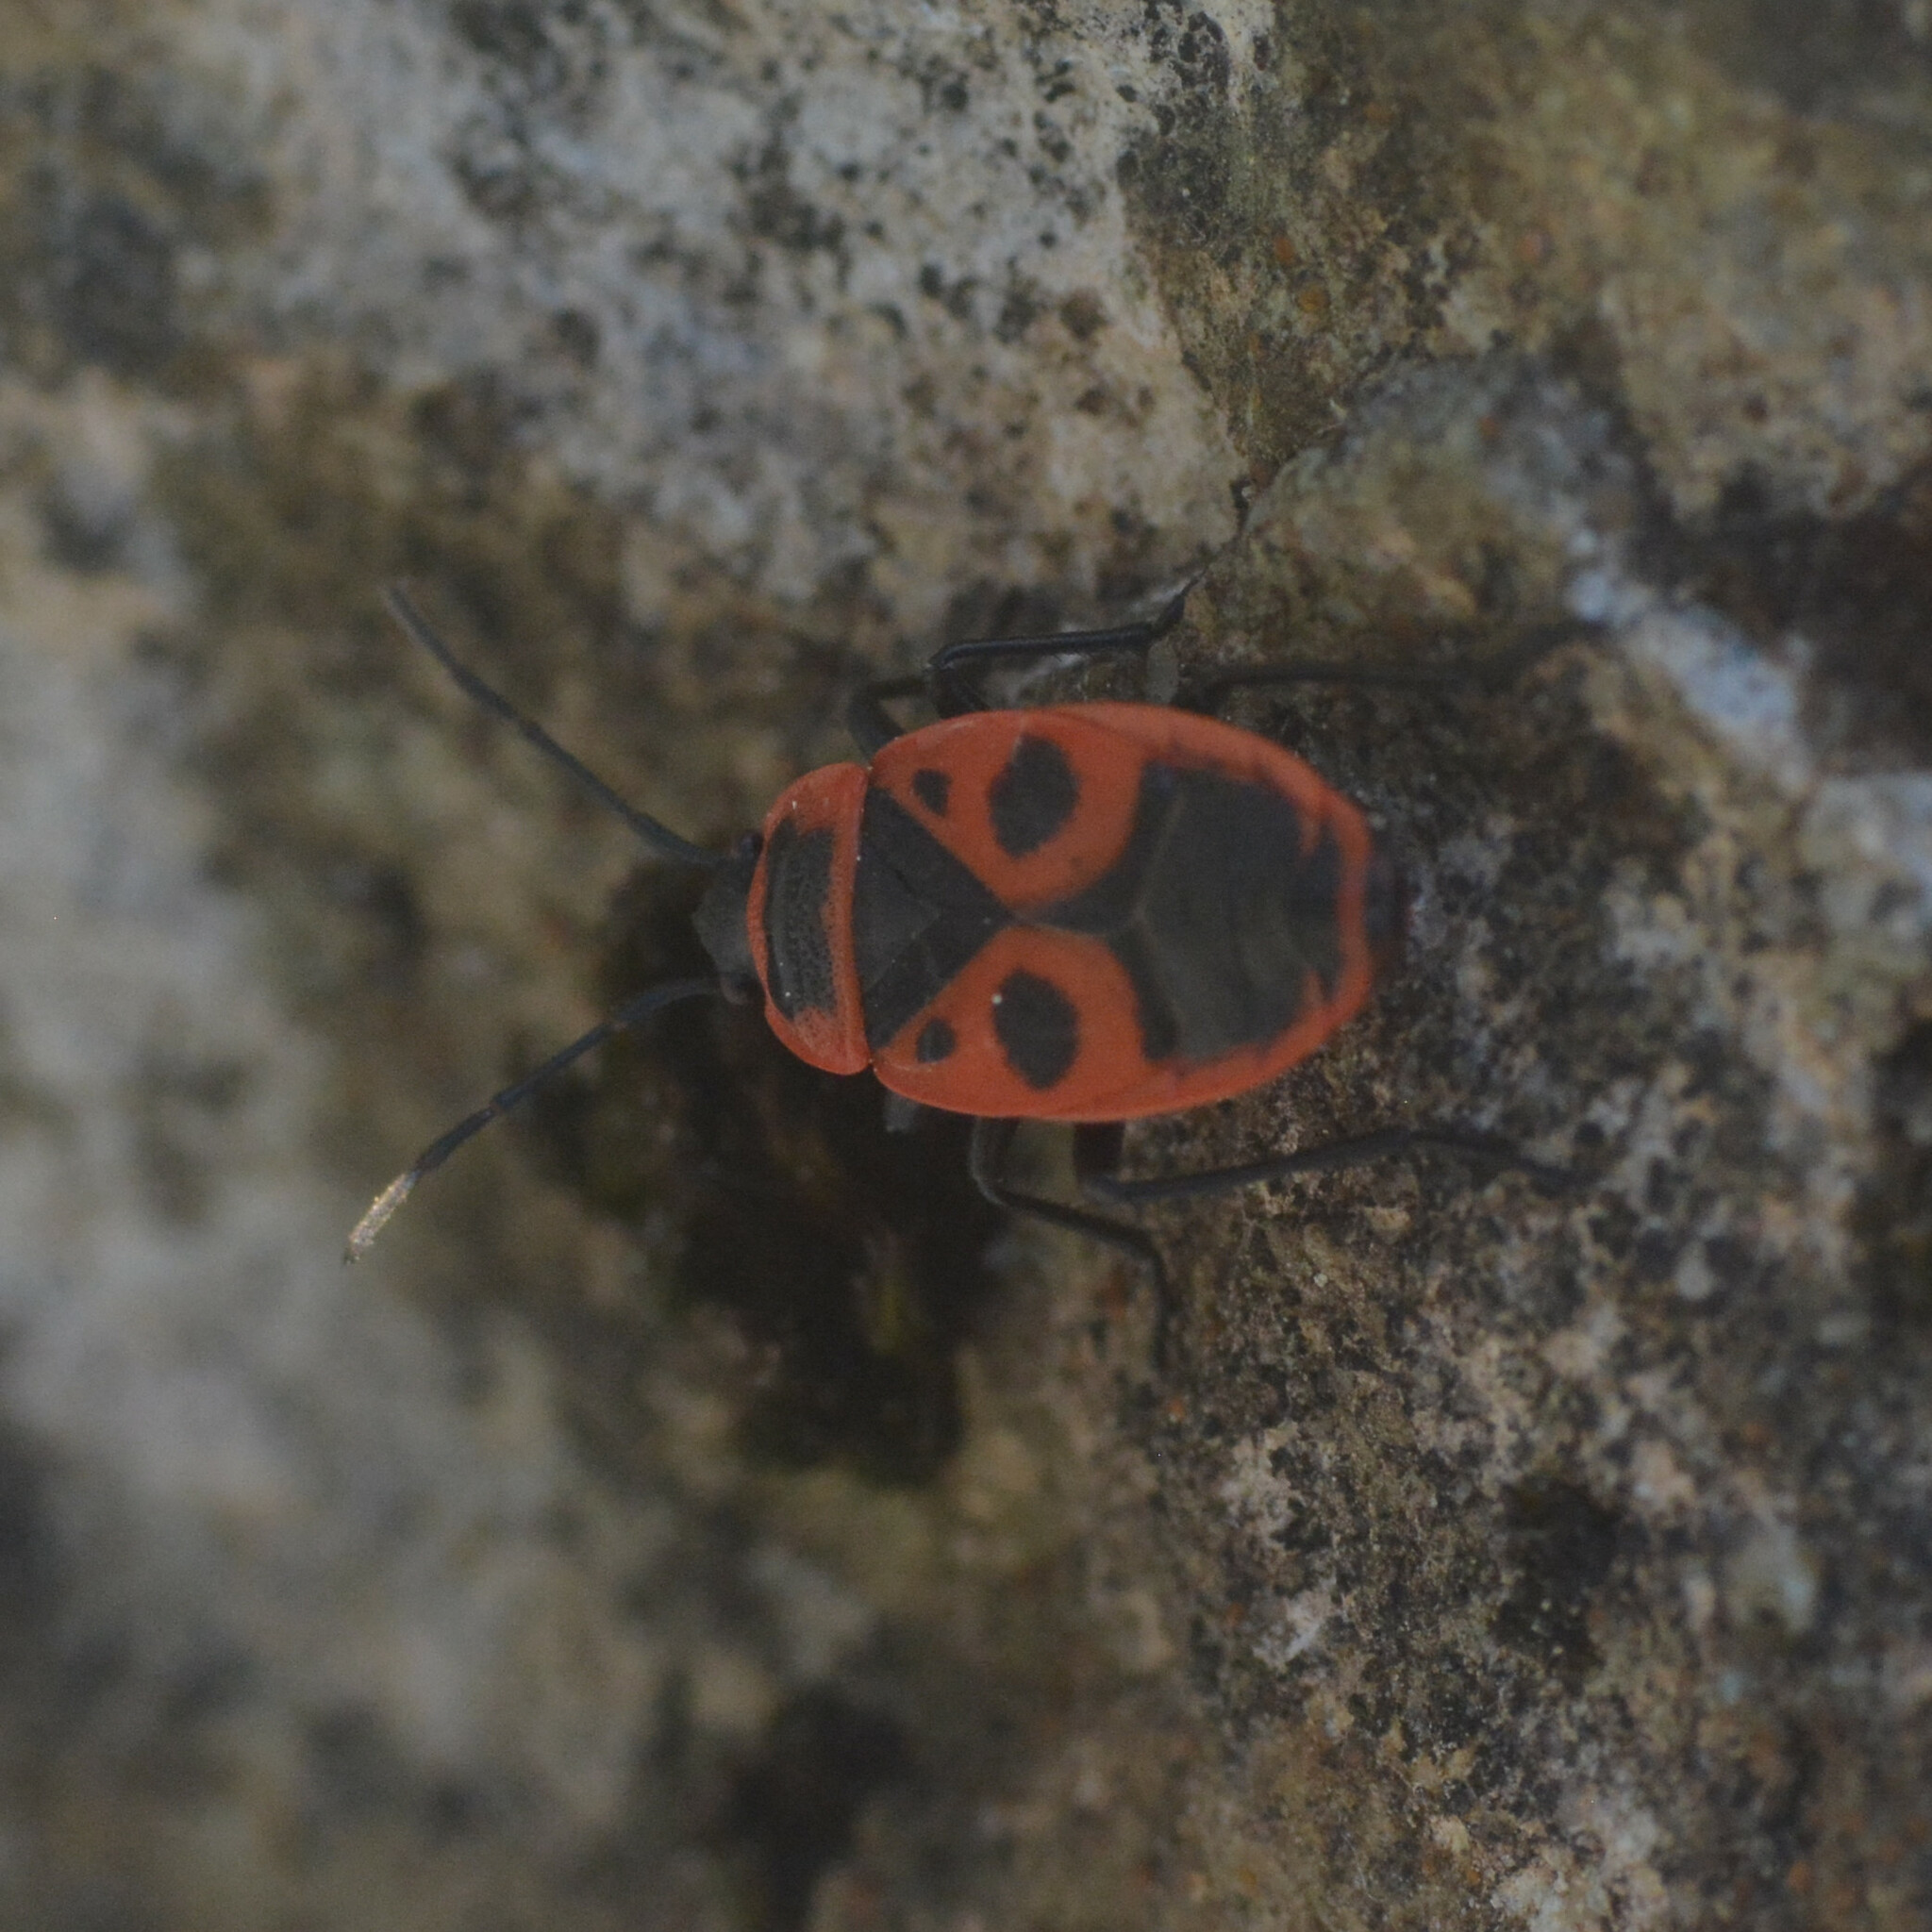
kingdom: Animalia
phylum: Arthropoda
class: Insecta
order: Hemiptera
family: Pyrrhocoridae
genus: Pyrrhocoris
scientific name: Pyrrhocoris apterus
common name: Firebug
